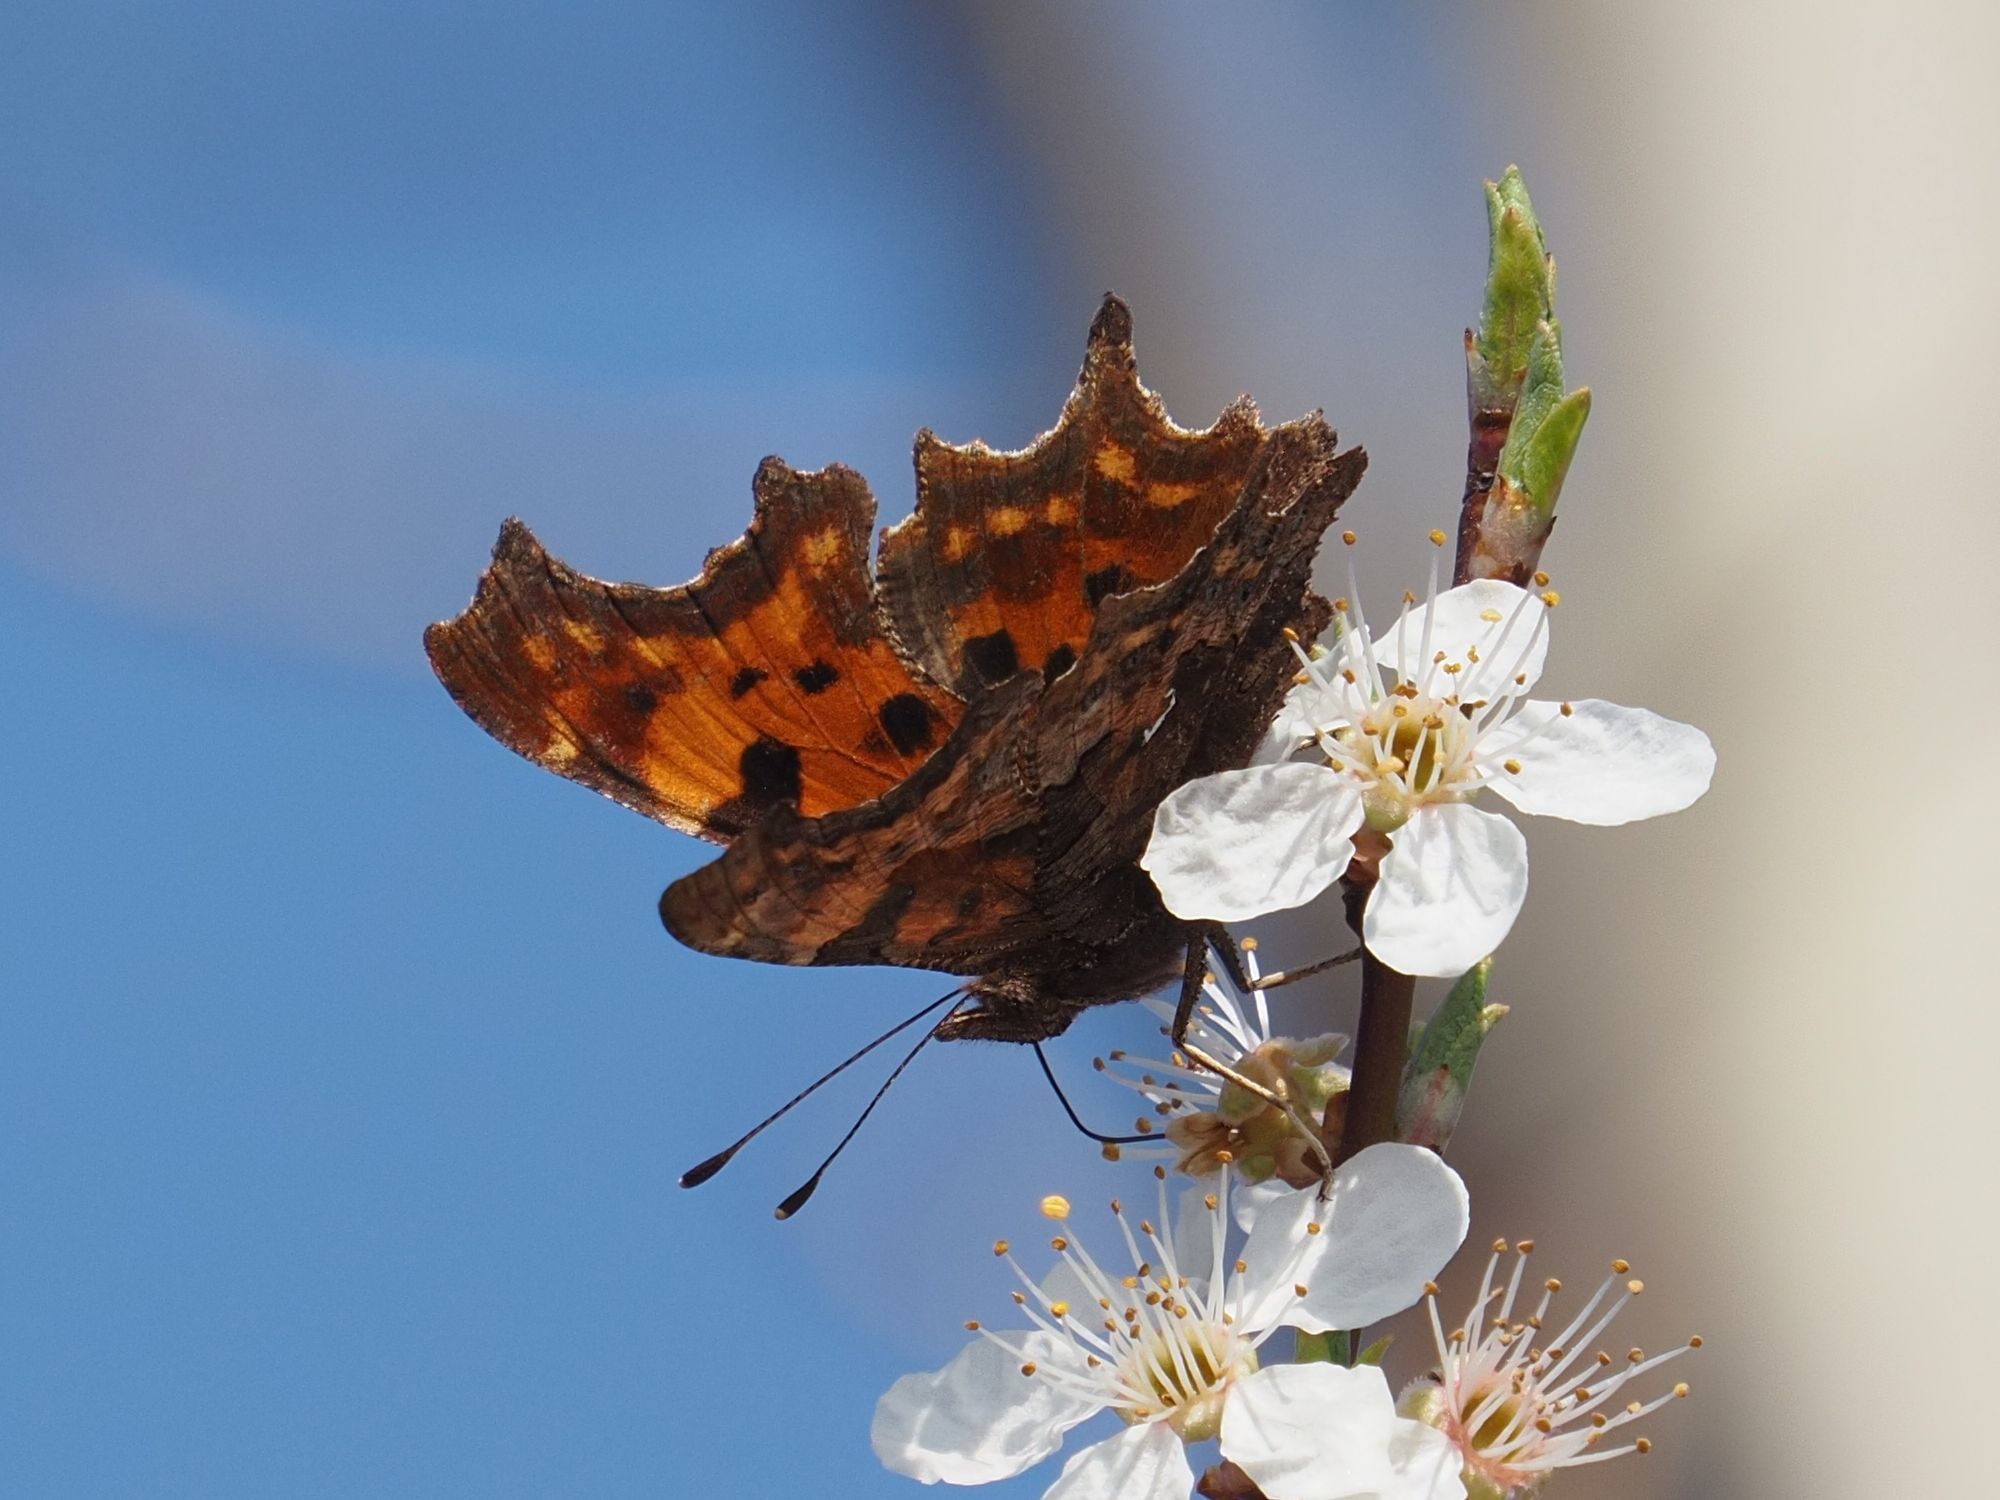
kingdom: Animalia
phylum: Arthropoda
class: Insecta
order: Lepidoptera
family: Nymphalidae
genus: Polygonia
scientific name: Polygonia c-album
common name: Comma
